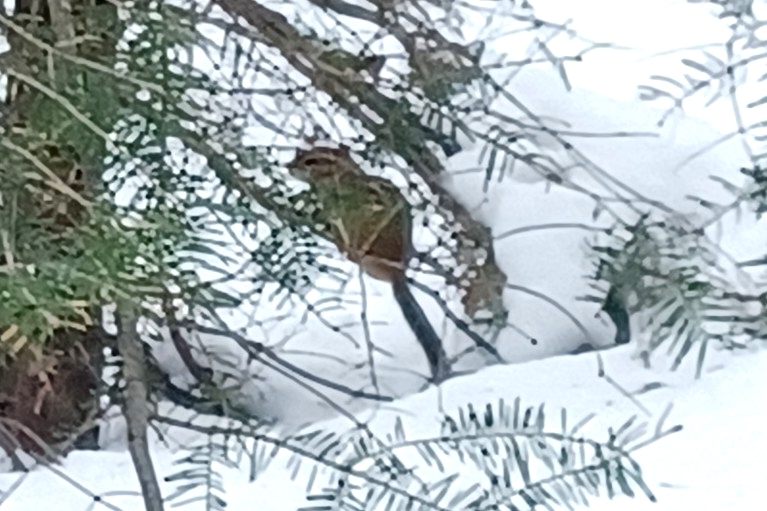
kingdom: Animalia
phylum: Chordata
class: Mammalia
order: Rodentia
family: Sciuridae
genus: Tamias
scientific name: Tamias striatus
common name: Eastern chipmunk
